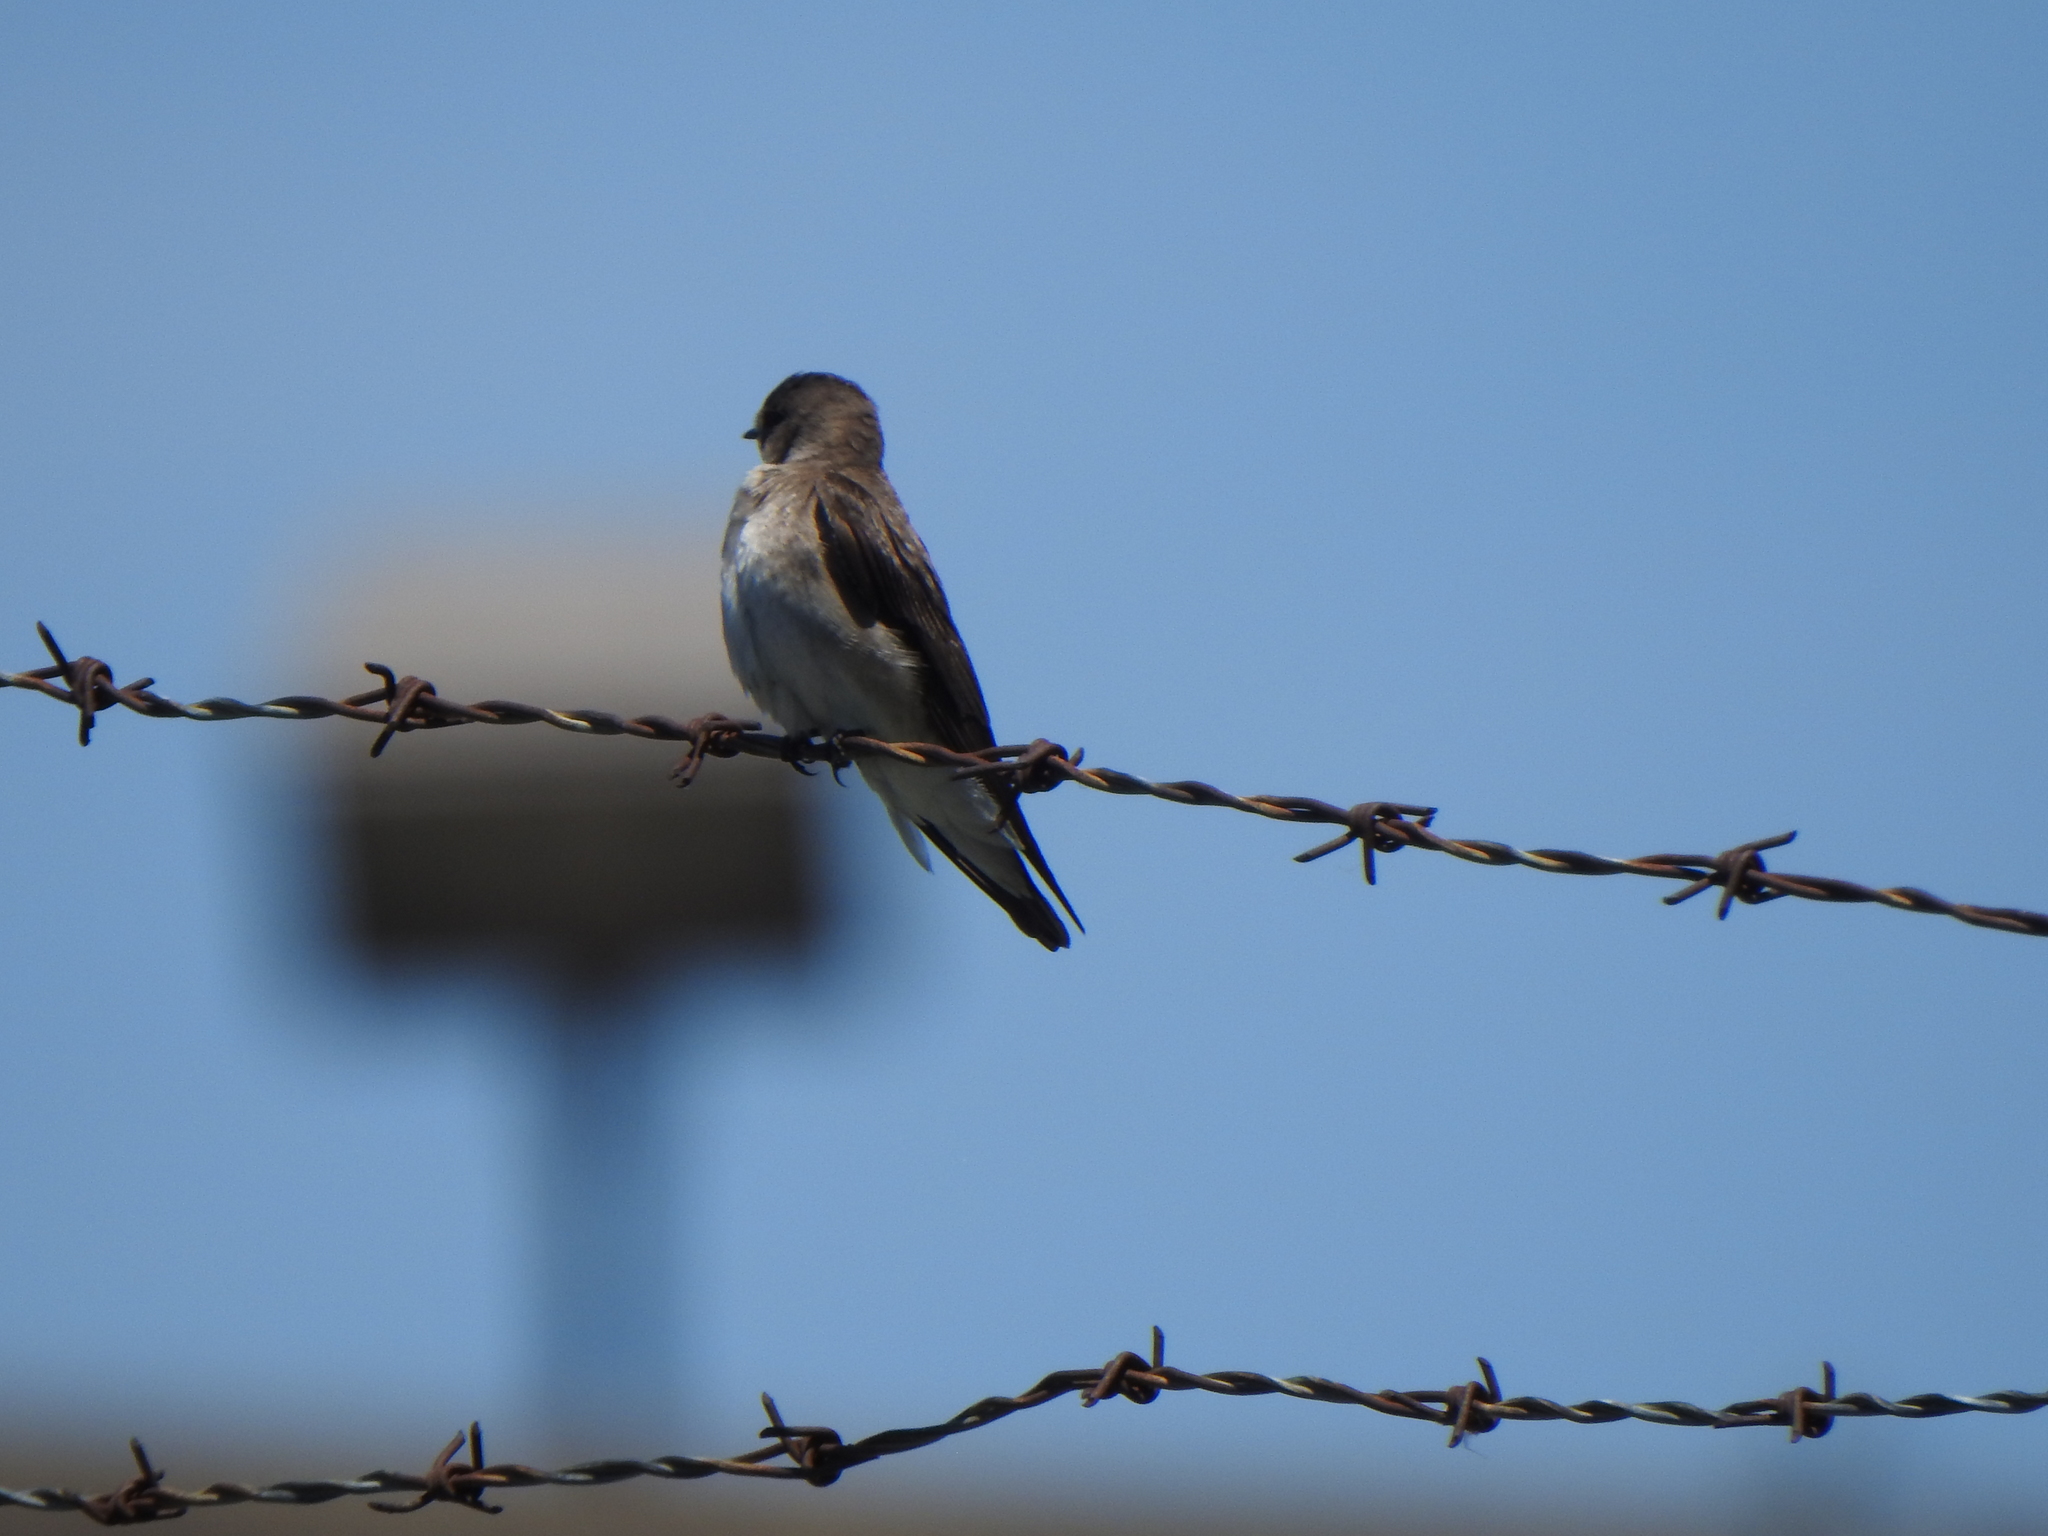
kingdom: Animalia
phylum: Chordata
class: Aves
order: Passeriformes
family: Hirundinidae
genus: Stelgidopteryx
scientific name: Stelgidopteryx serripennis
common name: Northern rough-winged swallow
